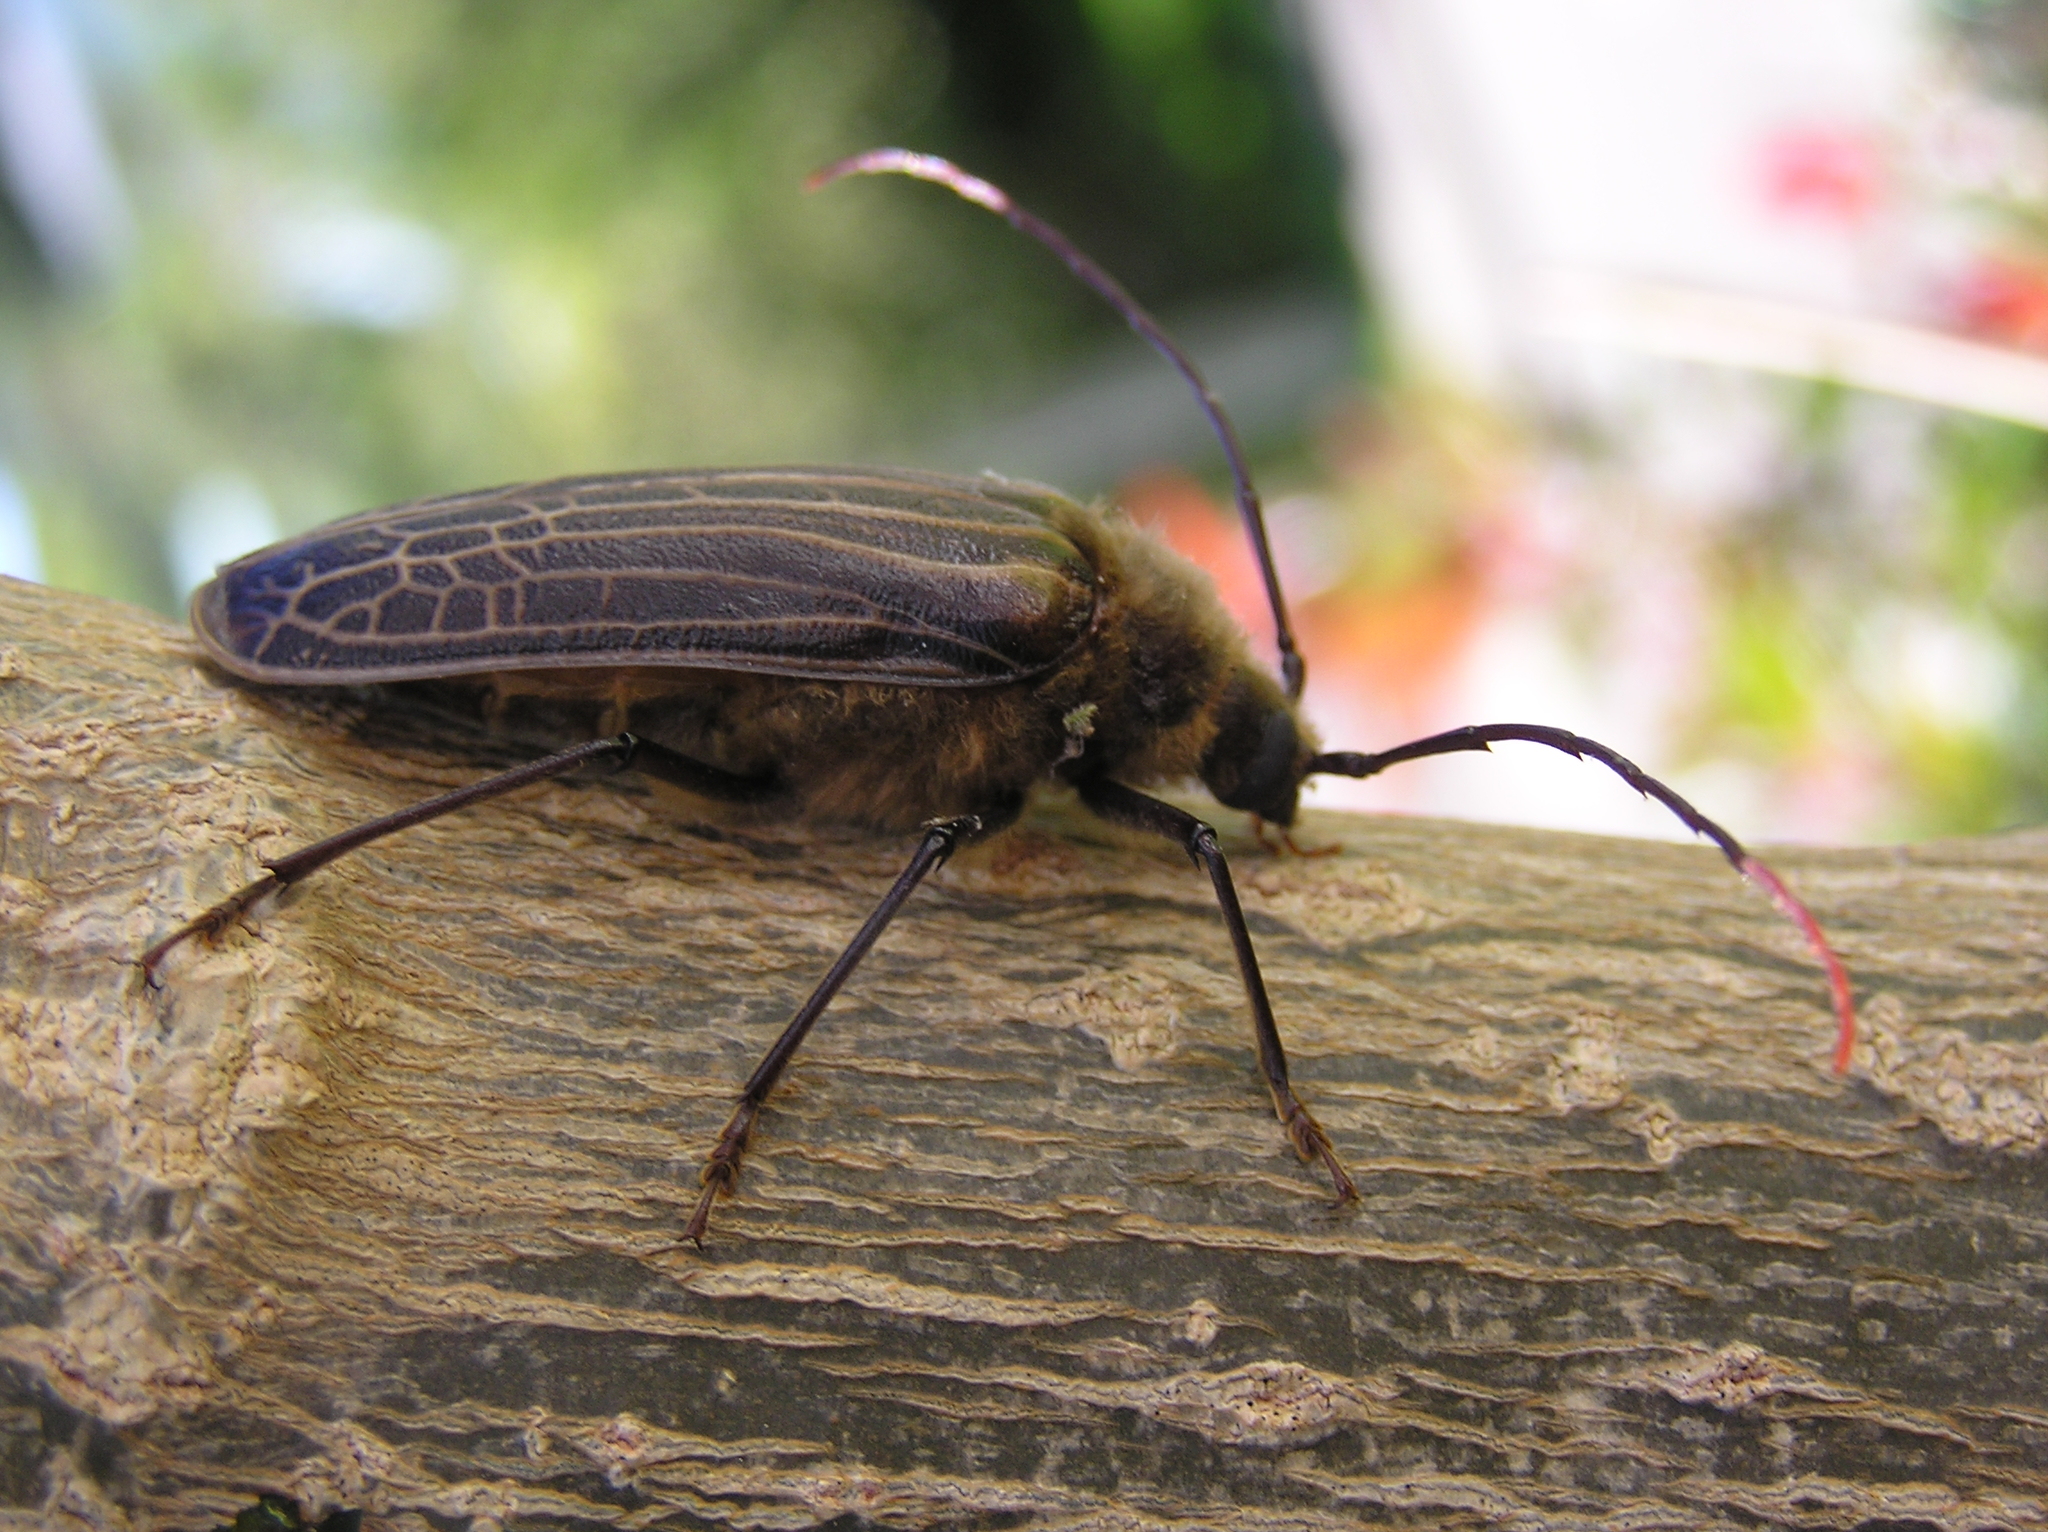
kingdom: Animalia
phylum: Arthropoda
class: Insecta
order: Coleoptera
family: Cerambycidae
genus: Prionoplus
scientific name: Prionoplus reticularis
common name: Huhu beetle
